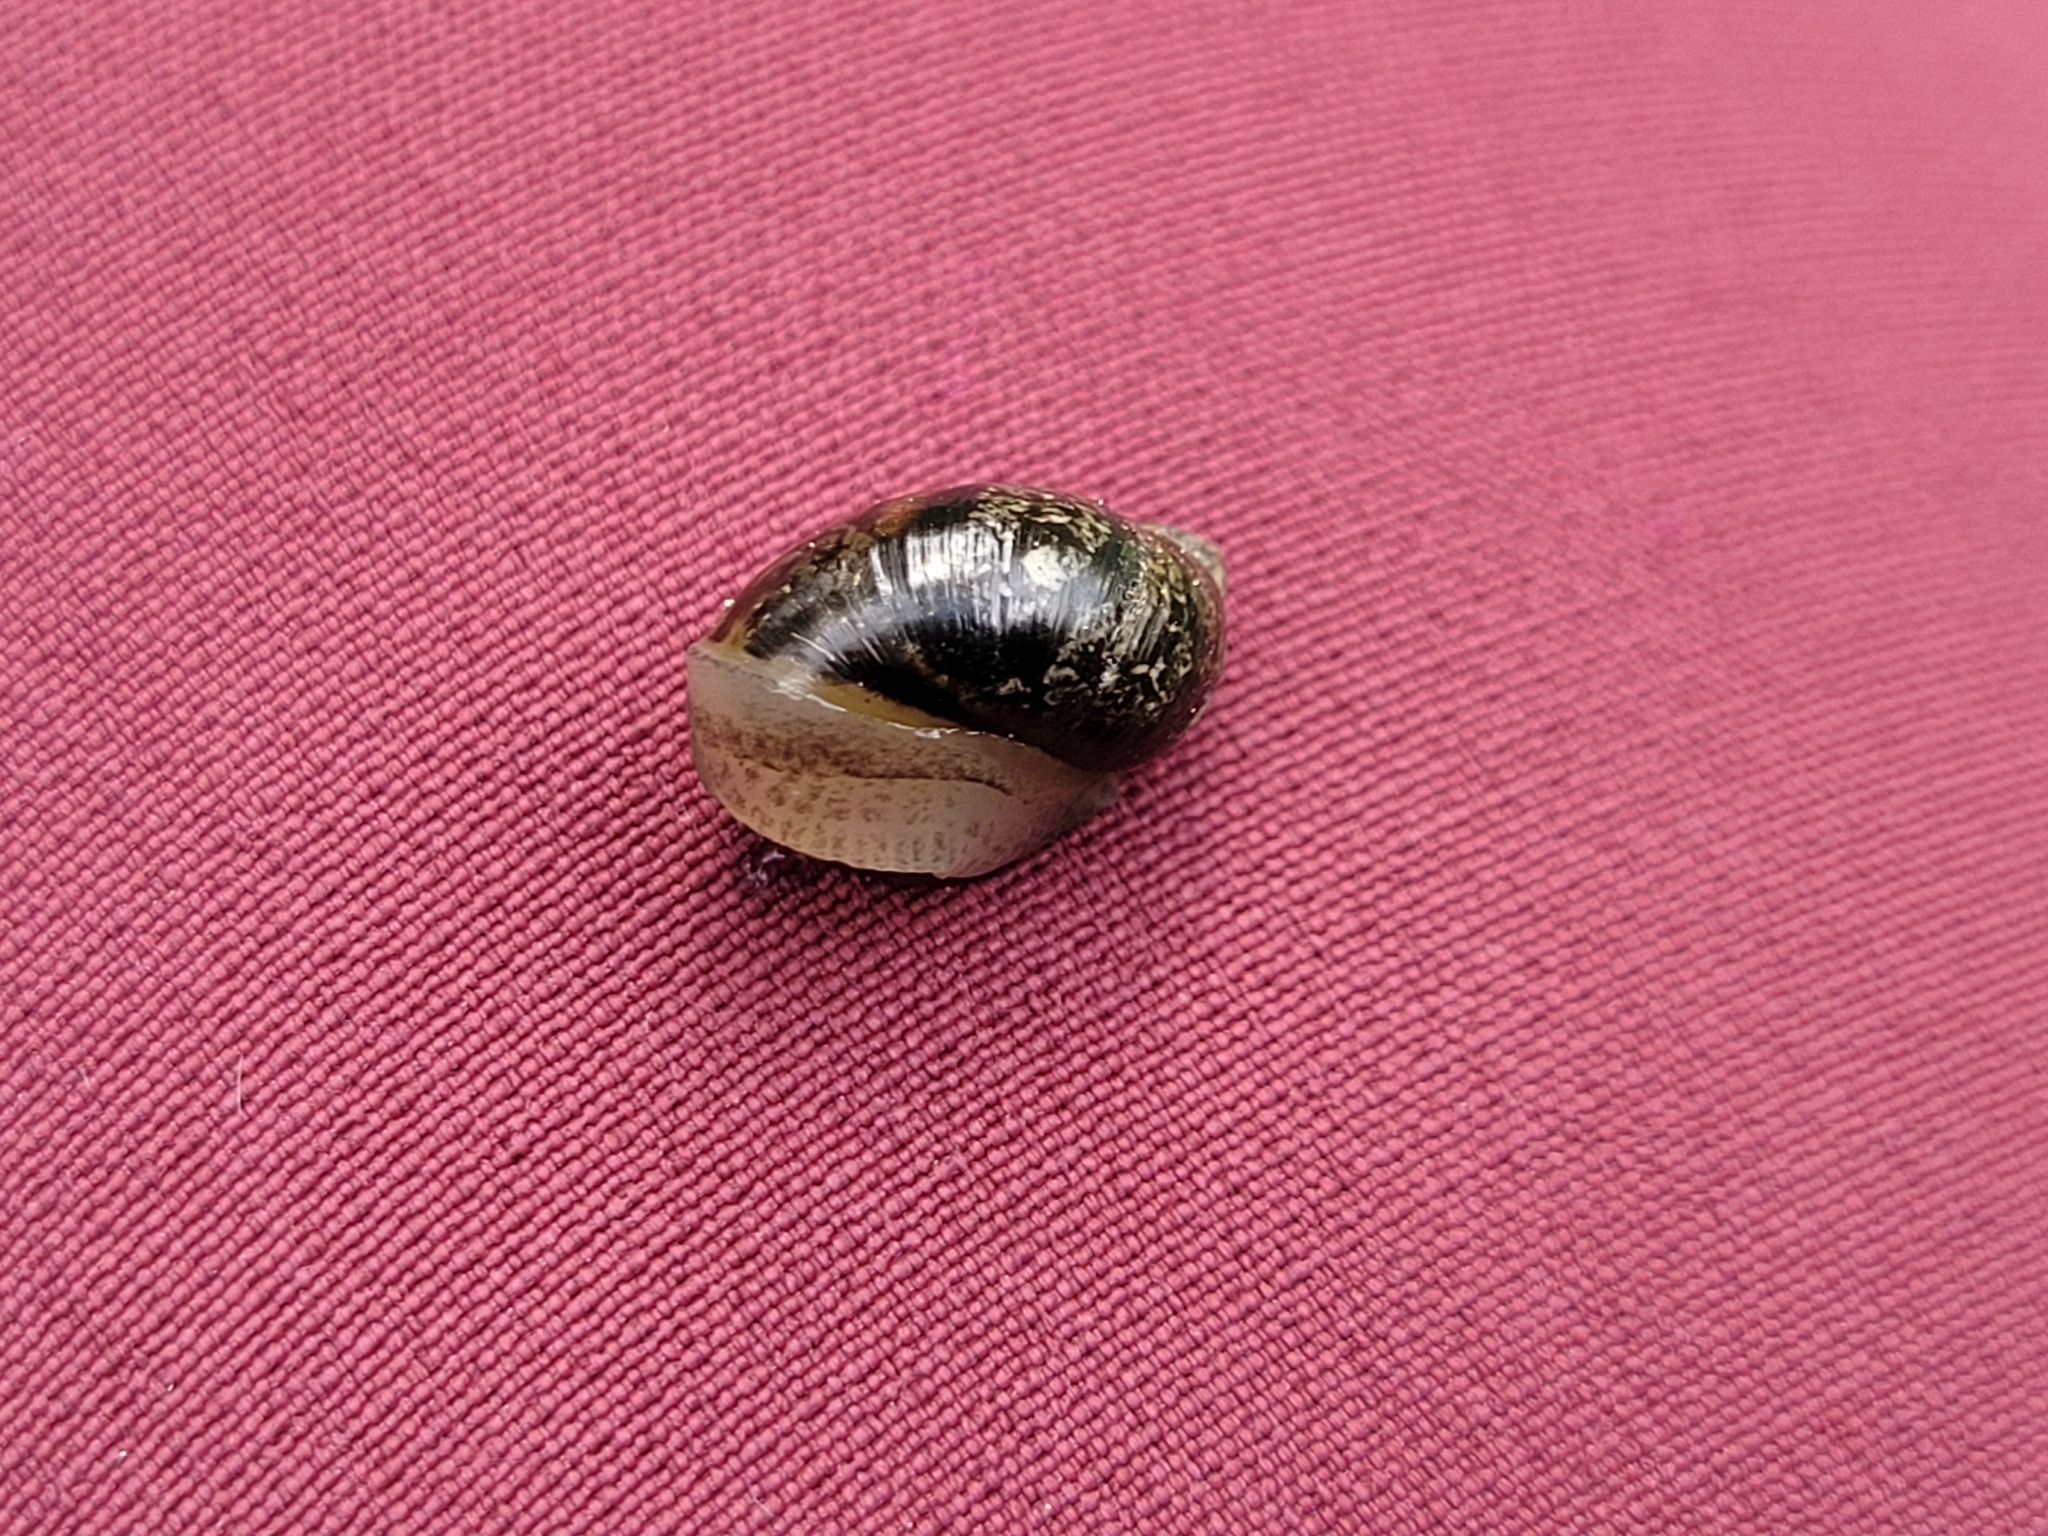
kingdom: Animalia
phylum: Mollusca
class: Gastropoda
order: Stylommatophora
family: Succineidae
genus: Succinea
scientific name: Succinea putris
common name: European ambersnail
